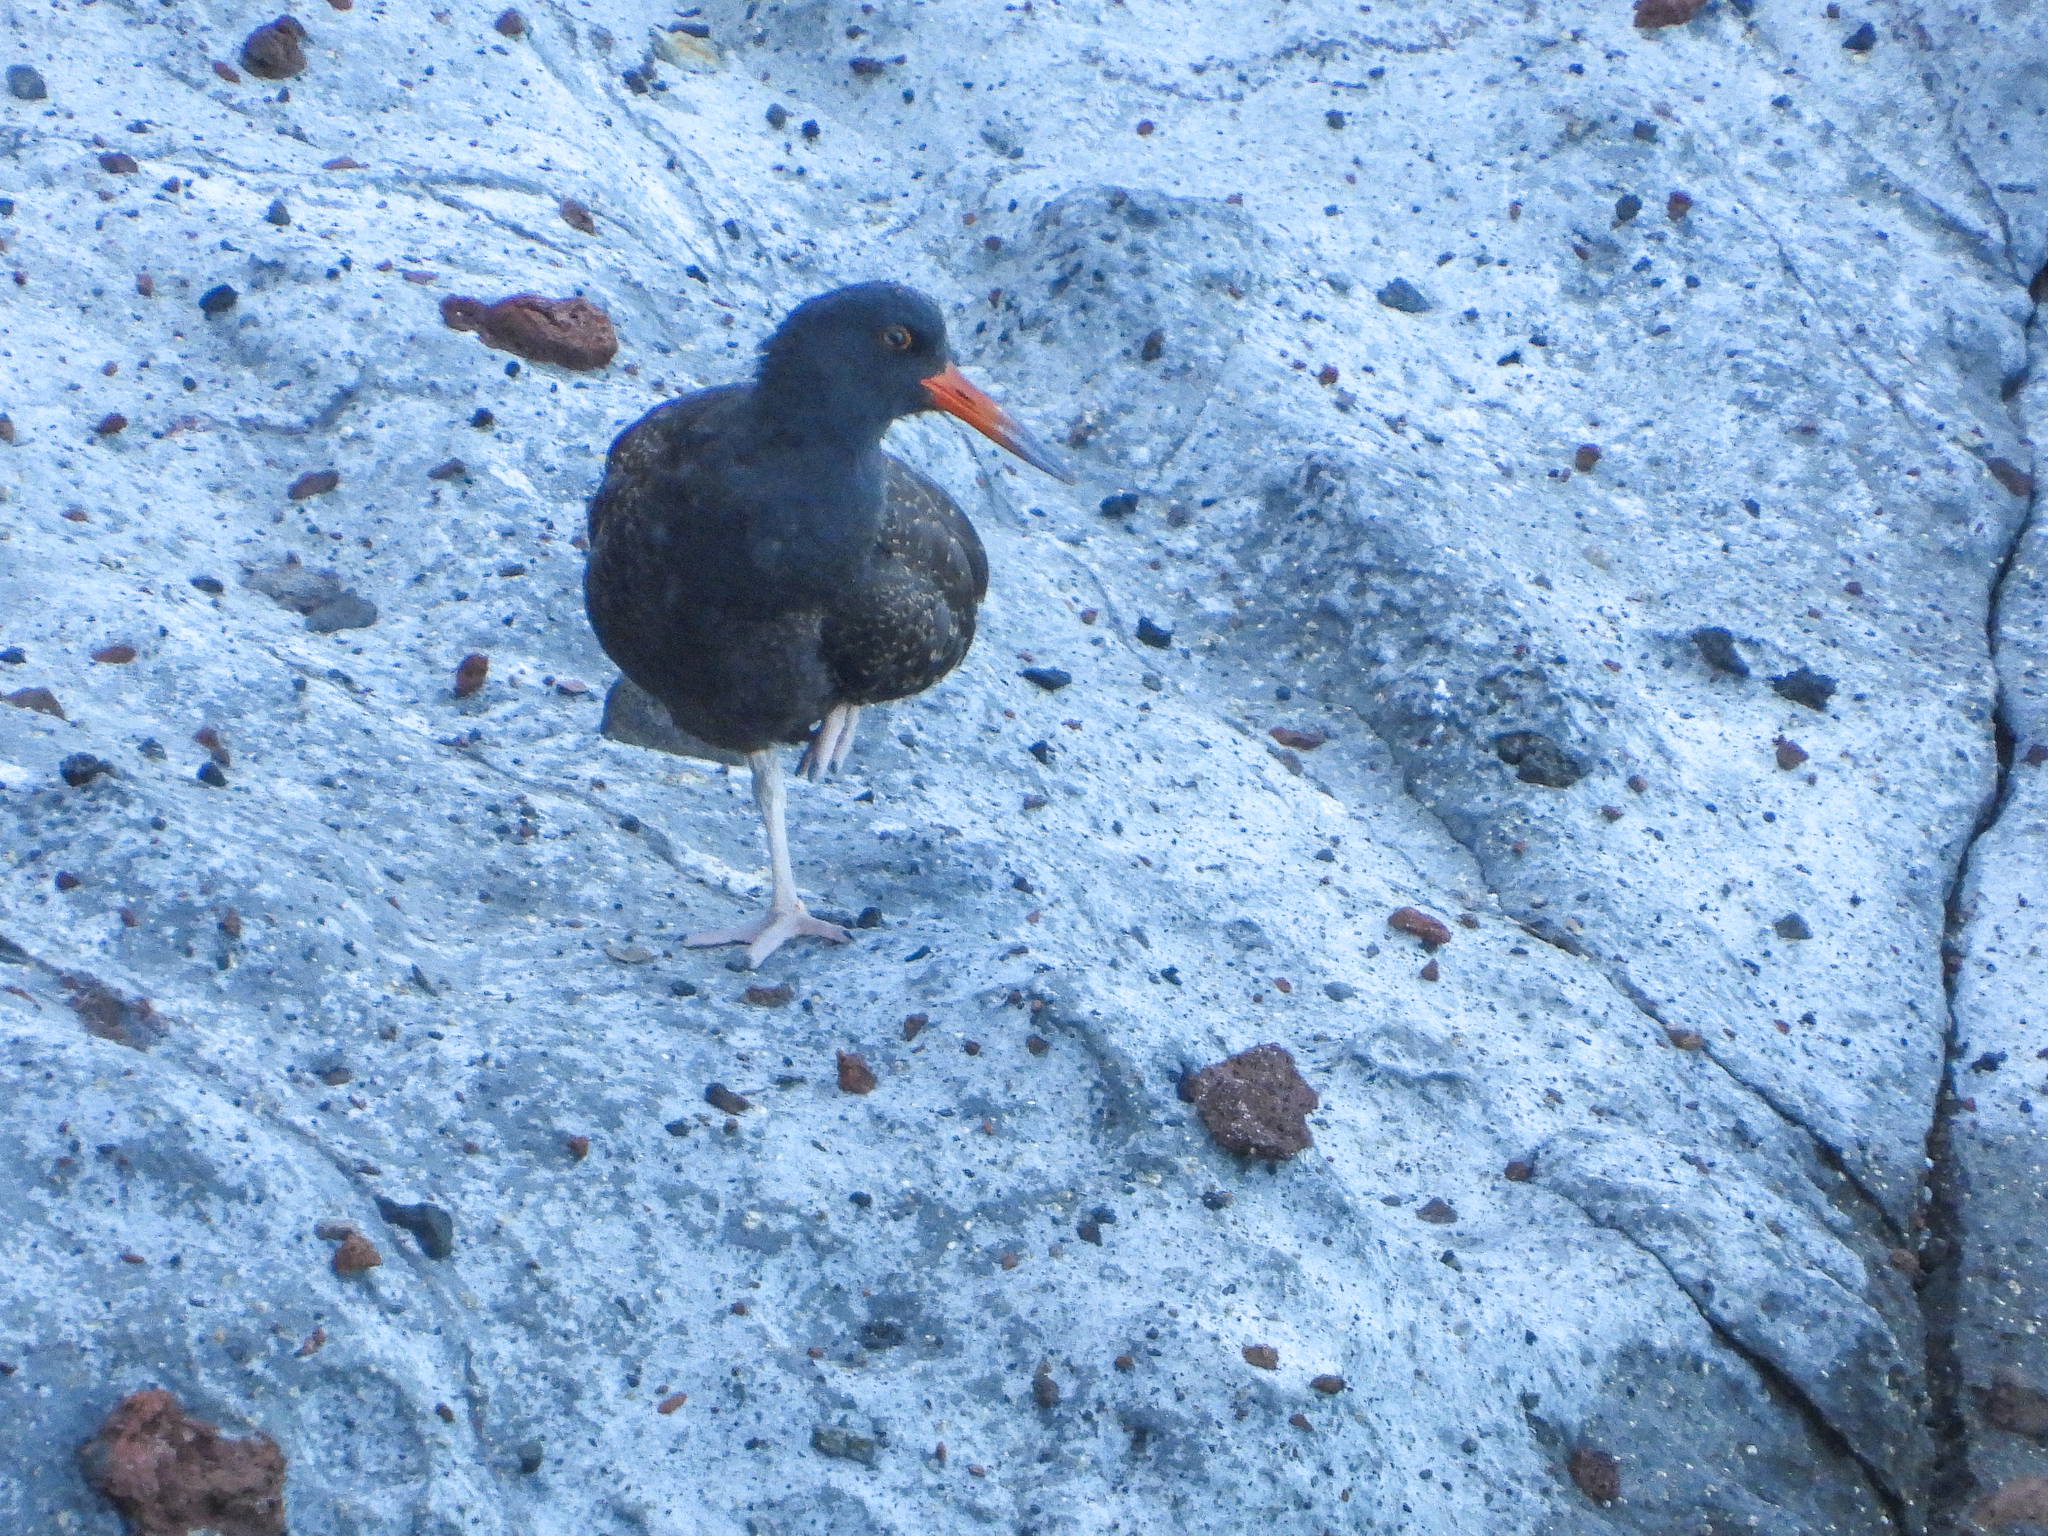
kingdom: Animalia
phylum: Chordata
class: Aves
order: Charadriiformes
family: Haematopodidae
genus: Haematopus
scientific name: Haematopus bachmani
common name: Black oystercatcher
